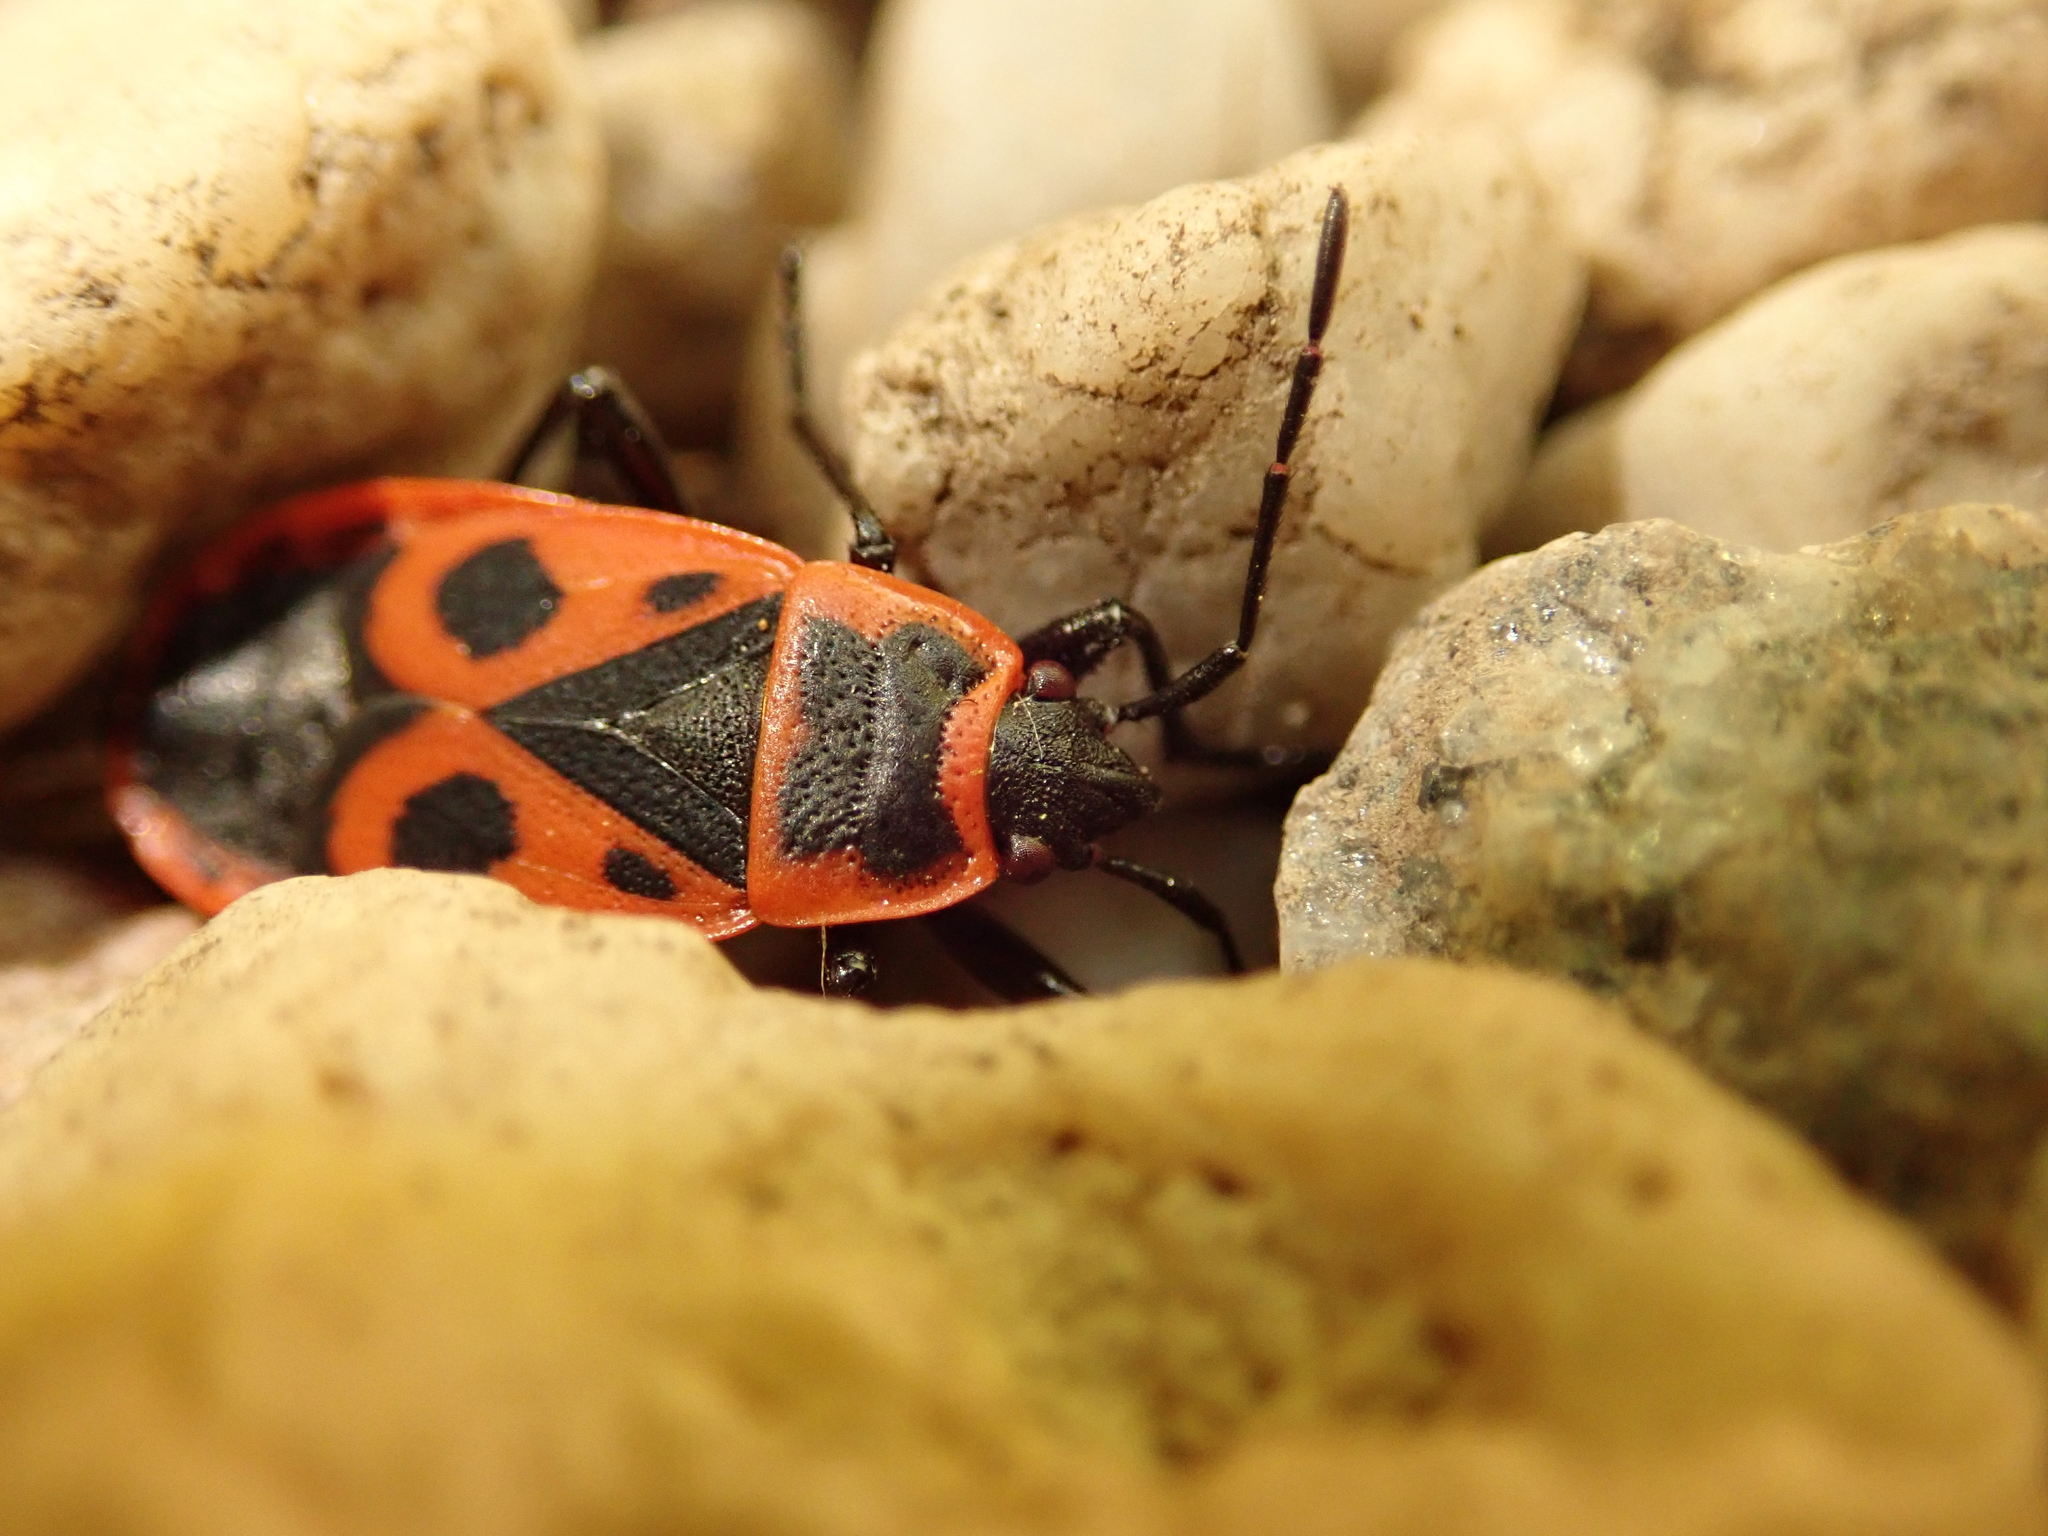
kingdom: Animalia
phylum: Arthropoda
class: Insecta
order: Hemiptera
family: Pyrrhocoridae
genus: Pyrrhocoris
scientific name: Pyrrhocoris apterus
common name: Firebug
